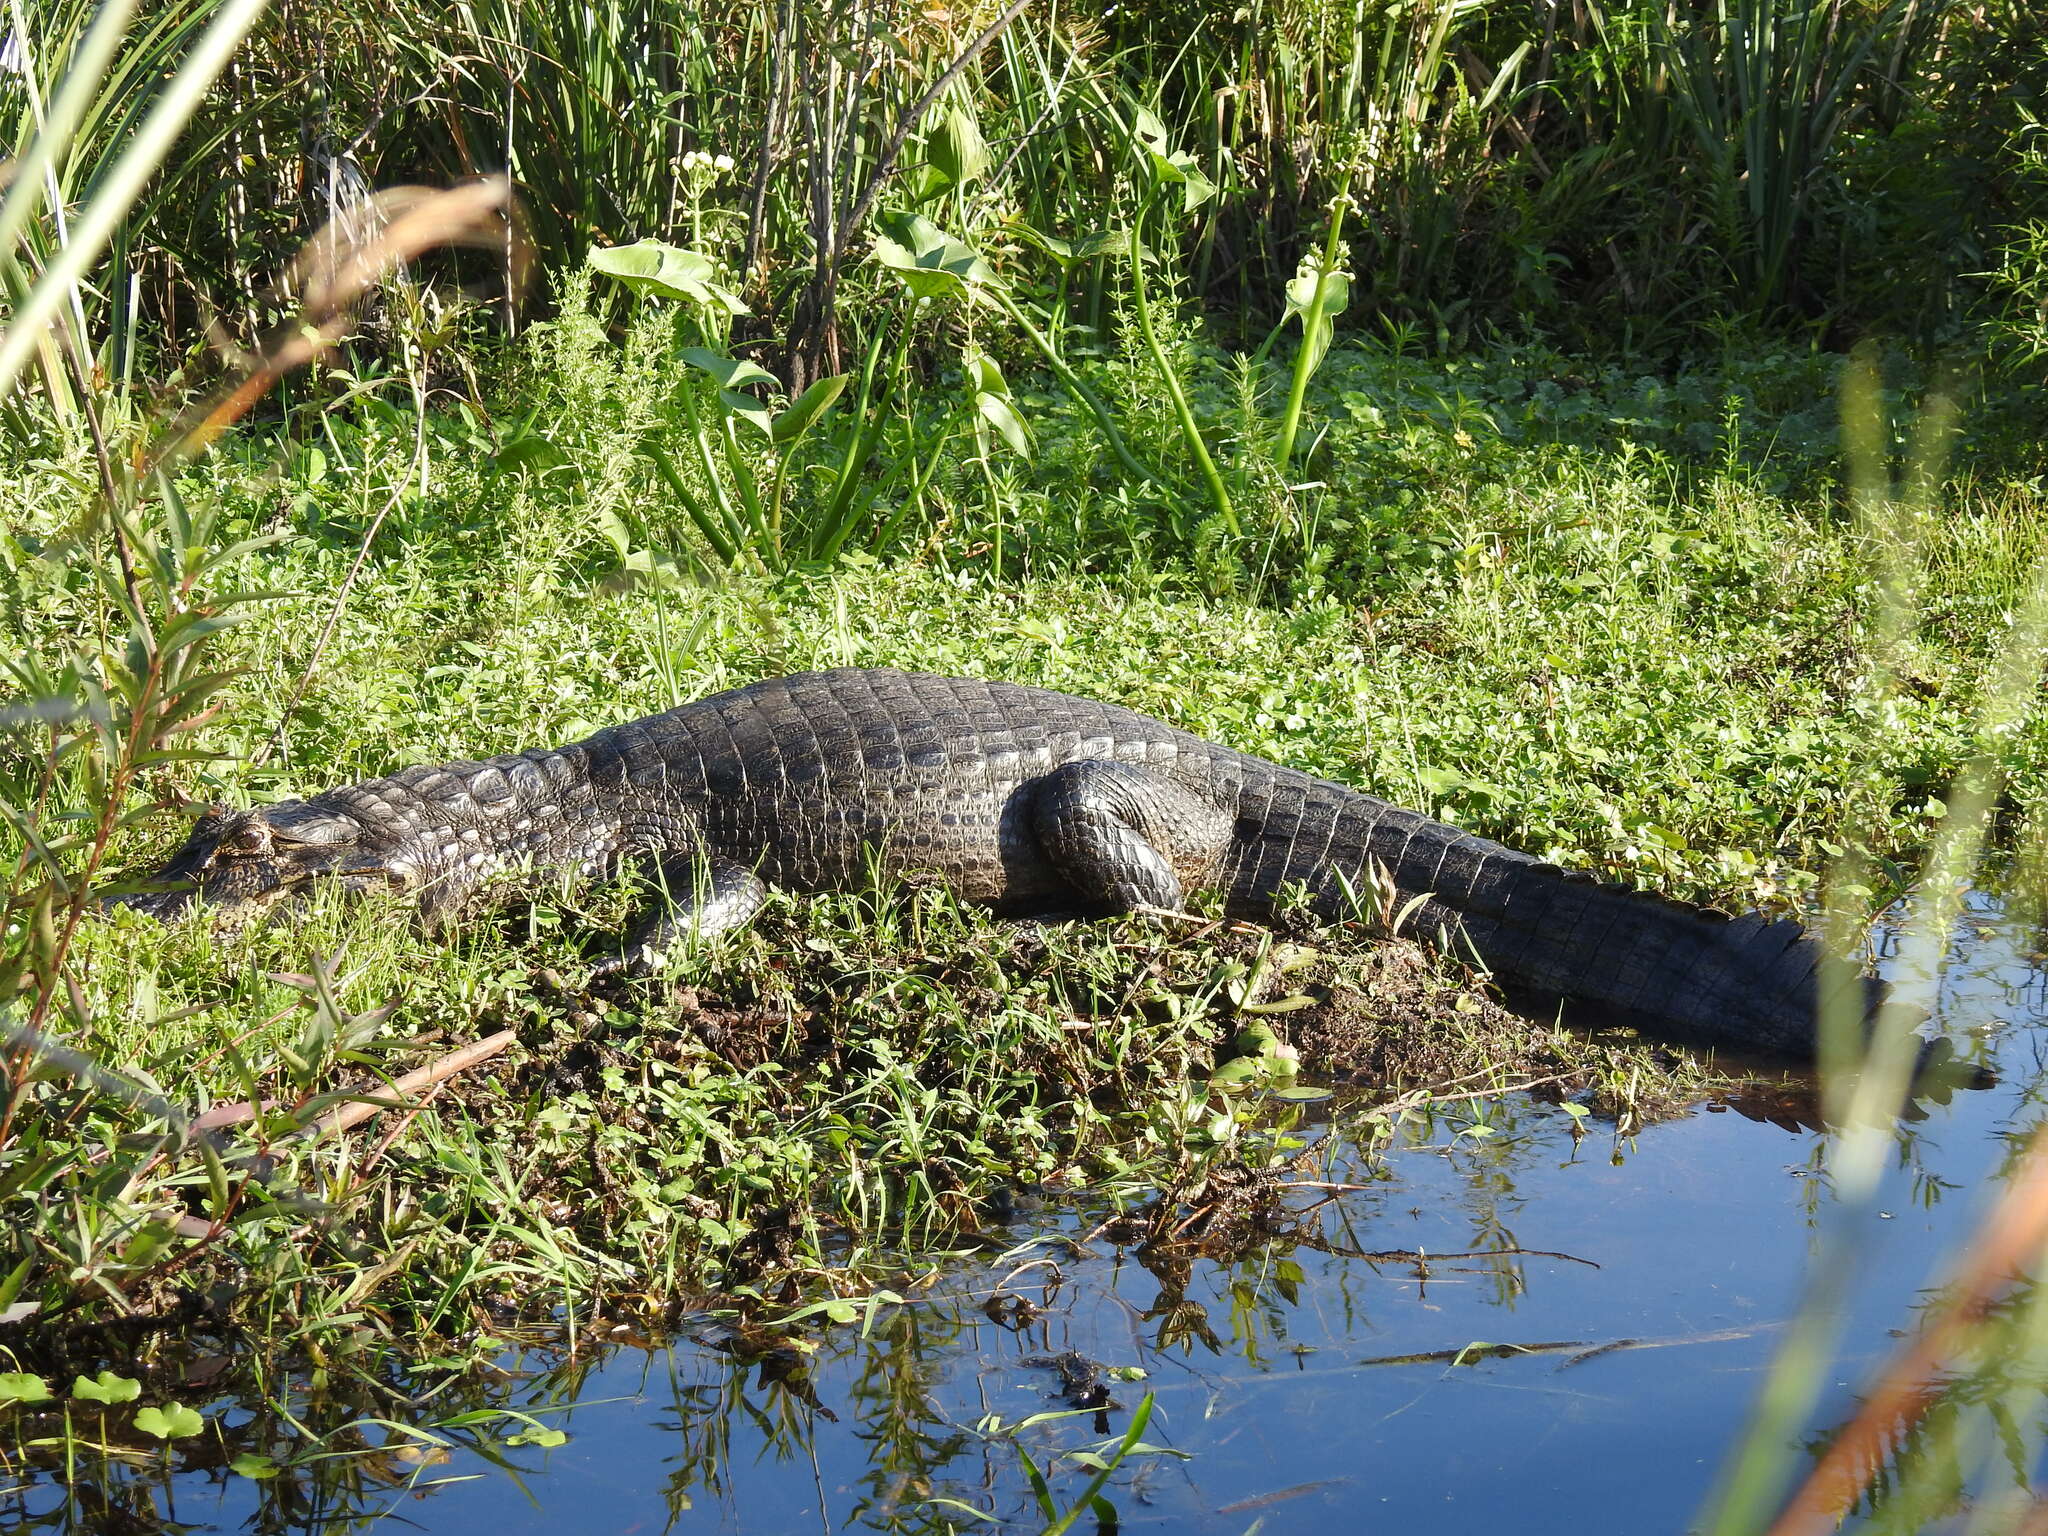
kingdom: Animalia
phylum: Chordata
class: Crocodylia
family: Alligatoridae
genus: Caiman
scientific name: Caiman yacare
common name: Yacare caiman
